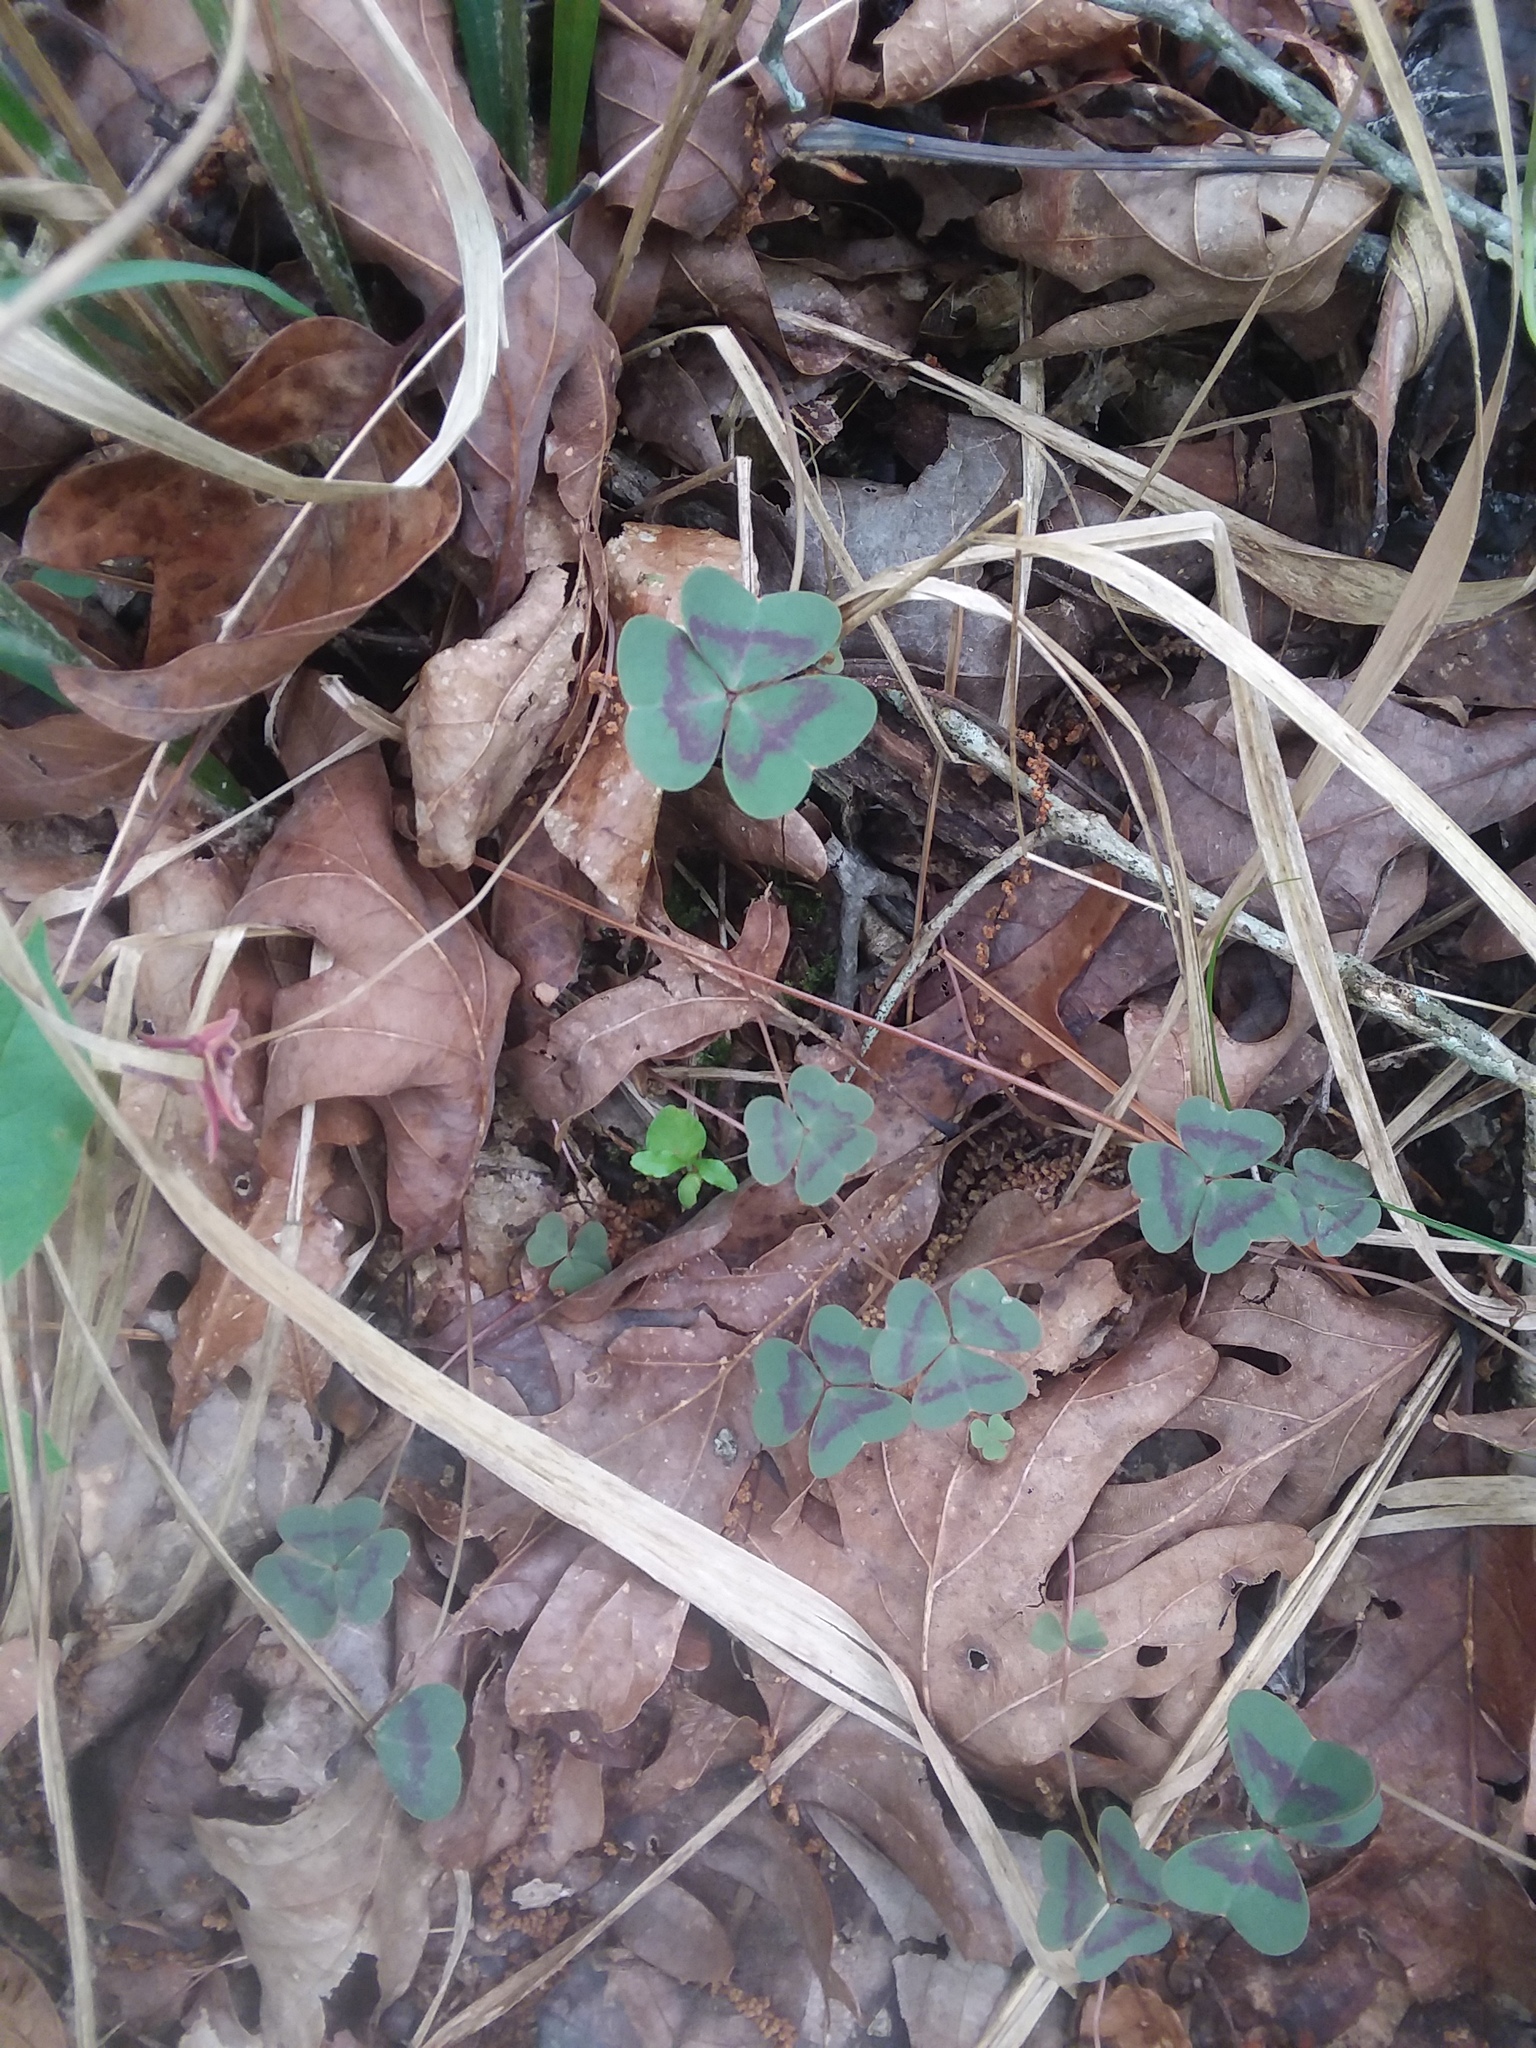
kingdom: Plantae
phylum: Tracheophyta
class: Magnoliopsida
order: Oxalidales
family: Oxalidaceae
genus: Oxalis
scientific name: Oxalis violacea
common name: Violet wood-sorrel
